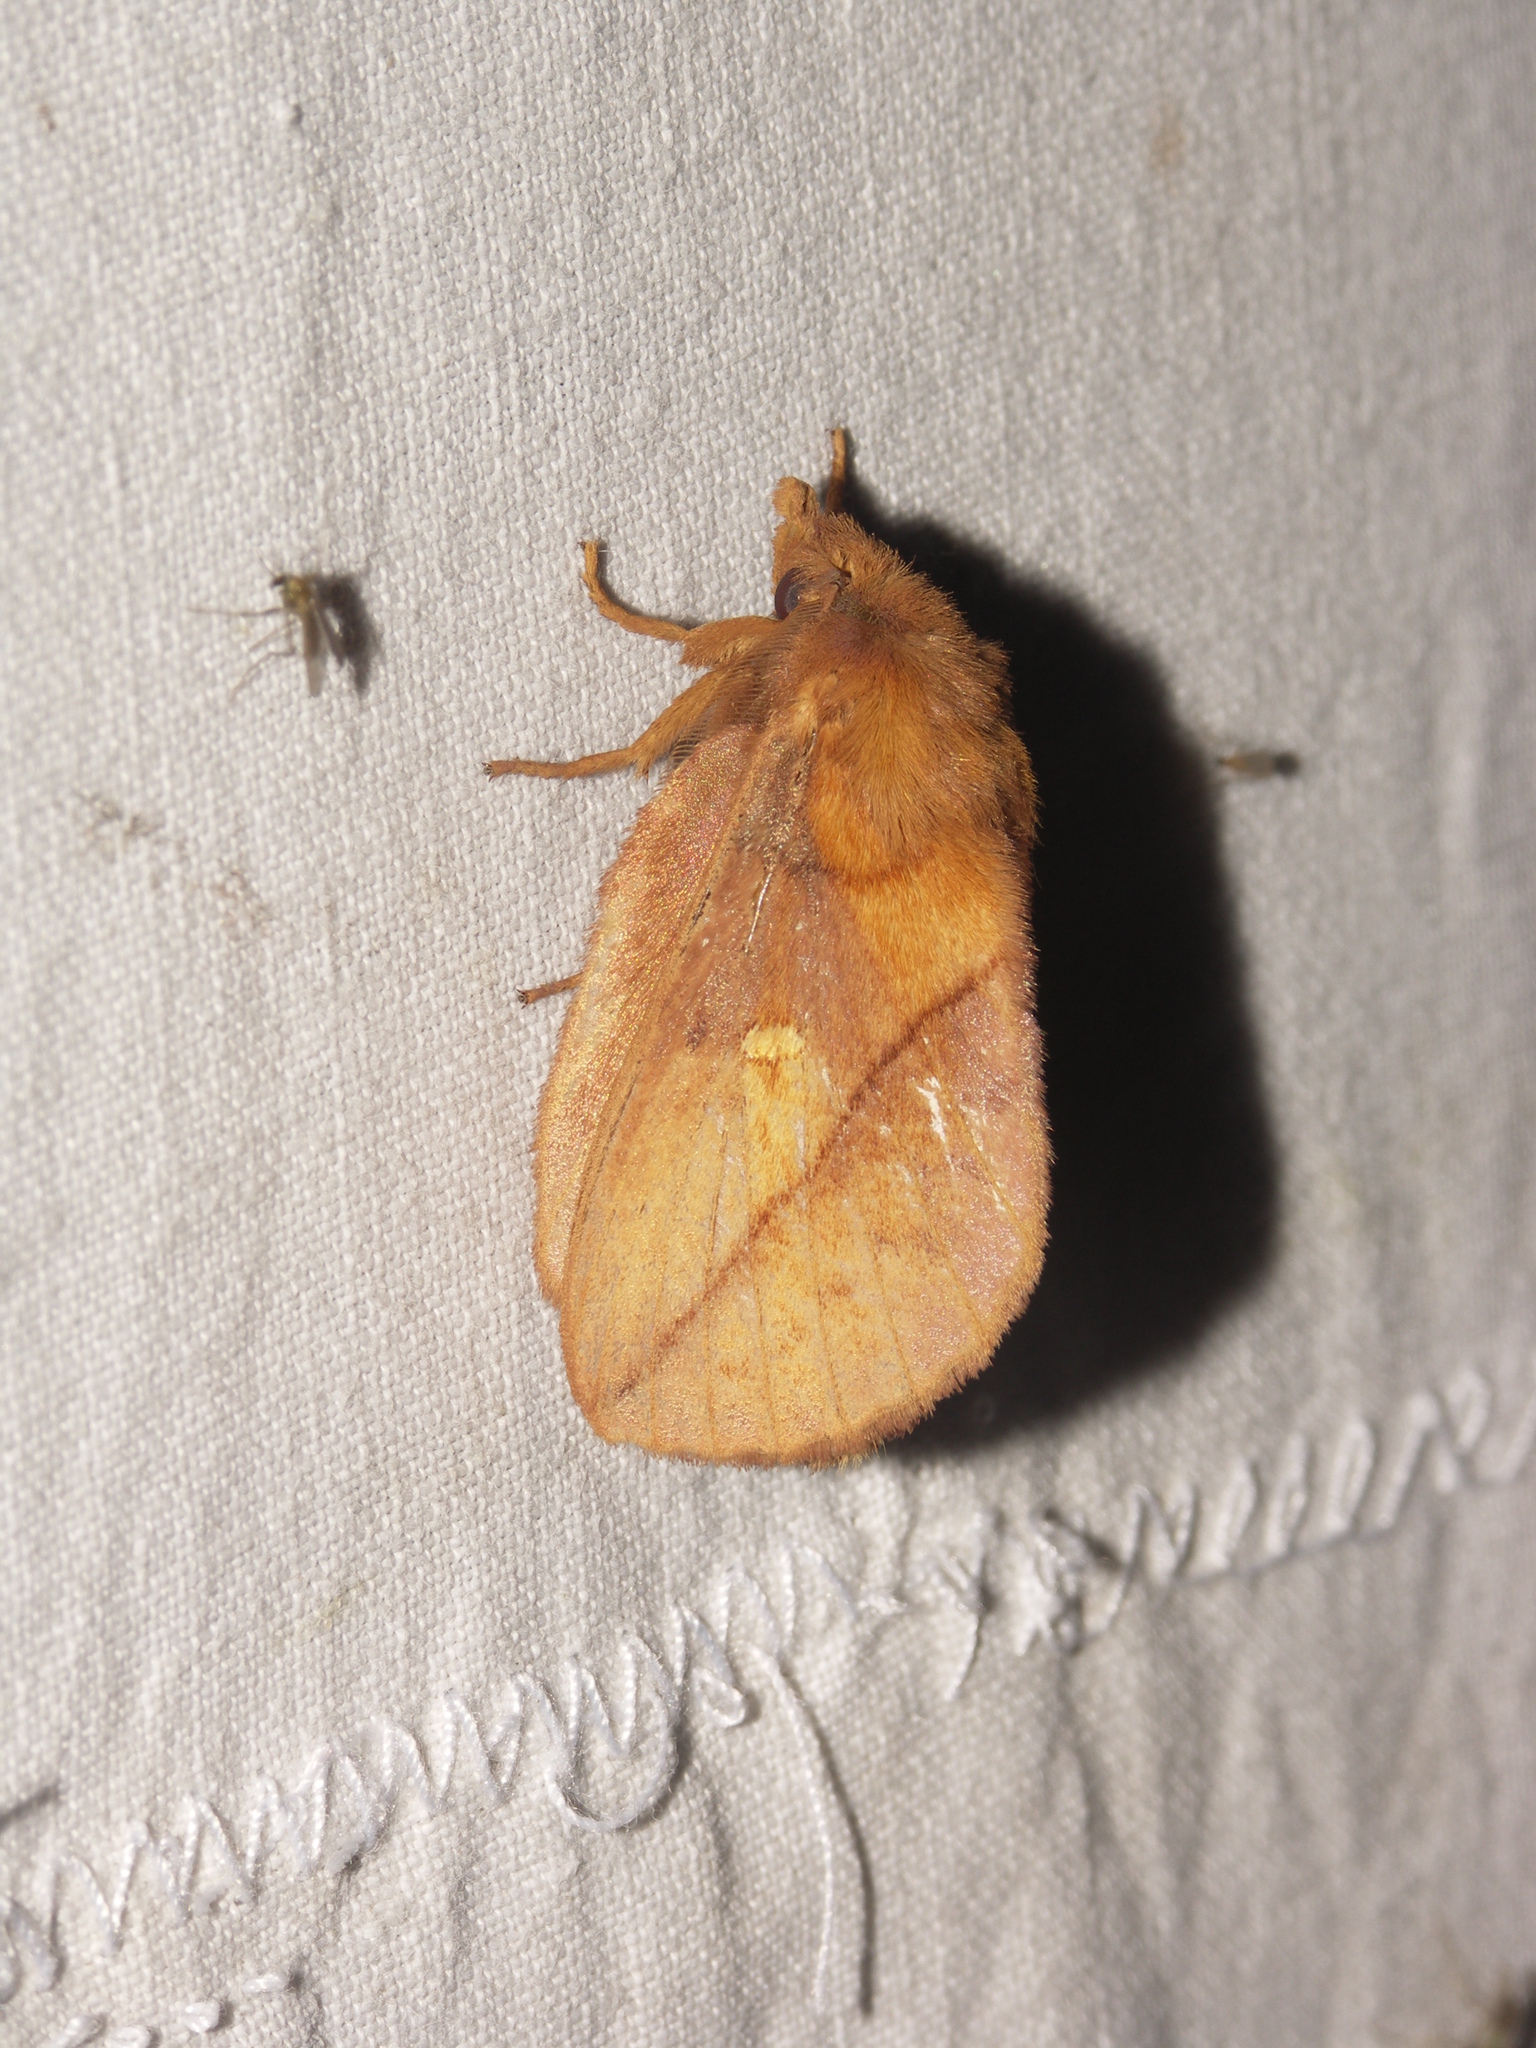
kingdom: Animalia
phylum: Arthropoda
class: Insecta
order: Lepidoptera
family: Lasiocampidae
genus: Euthrix
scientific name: Euthrix potatoria
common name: Drinker
